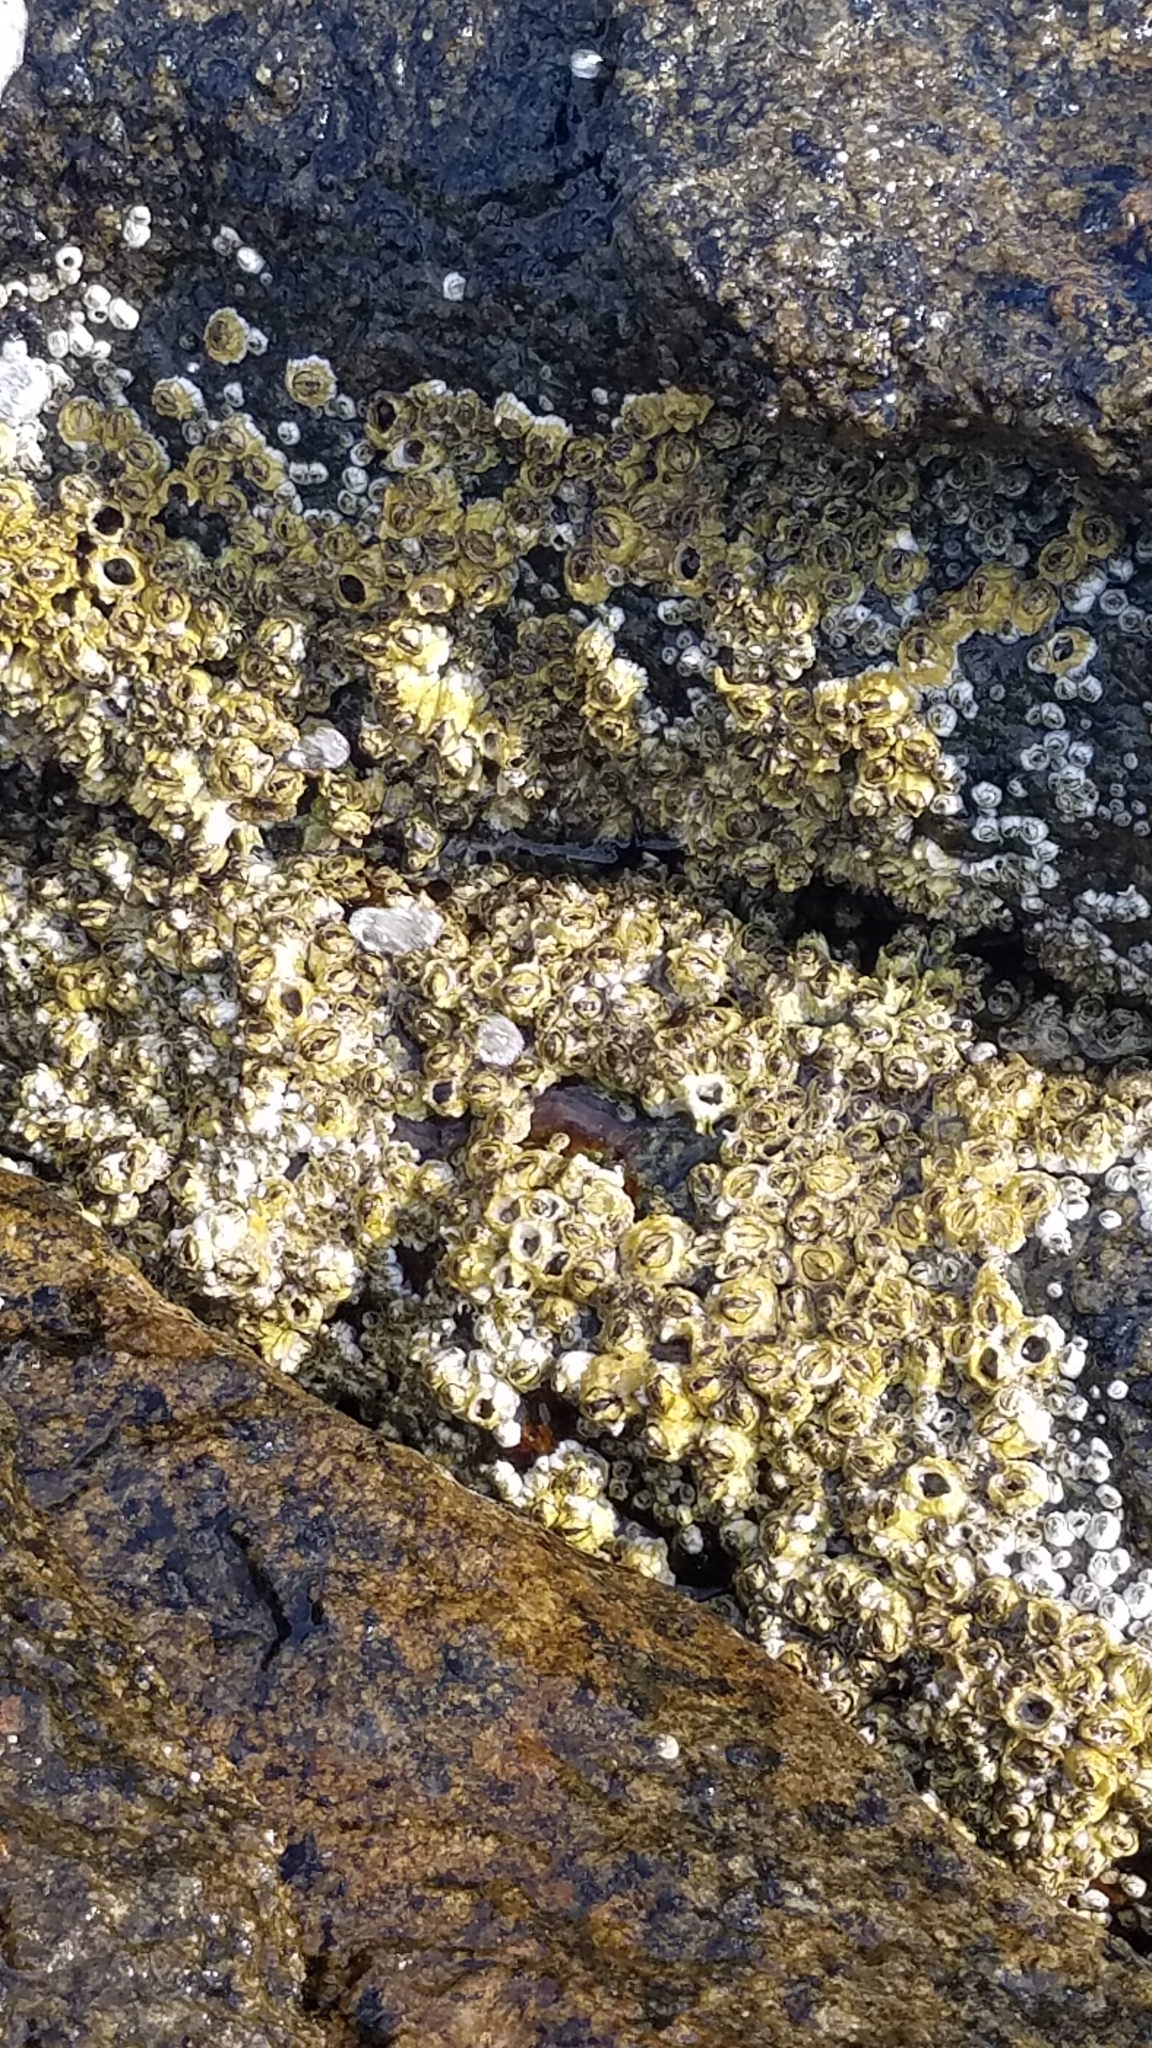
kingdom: Animalia
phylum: Arthropoda
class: Maxillopoda
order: Sessilia
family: Archaeobalanidae
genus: Semibalanus
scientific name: Semibalanus balanoides
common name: Acorn barnacle
